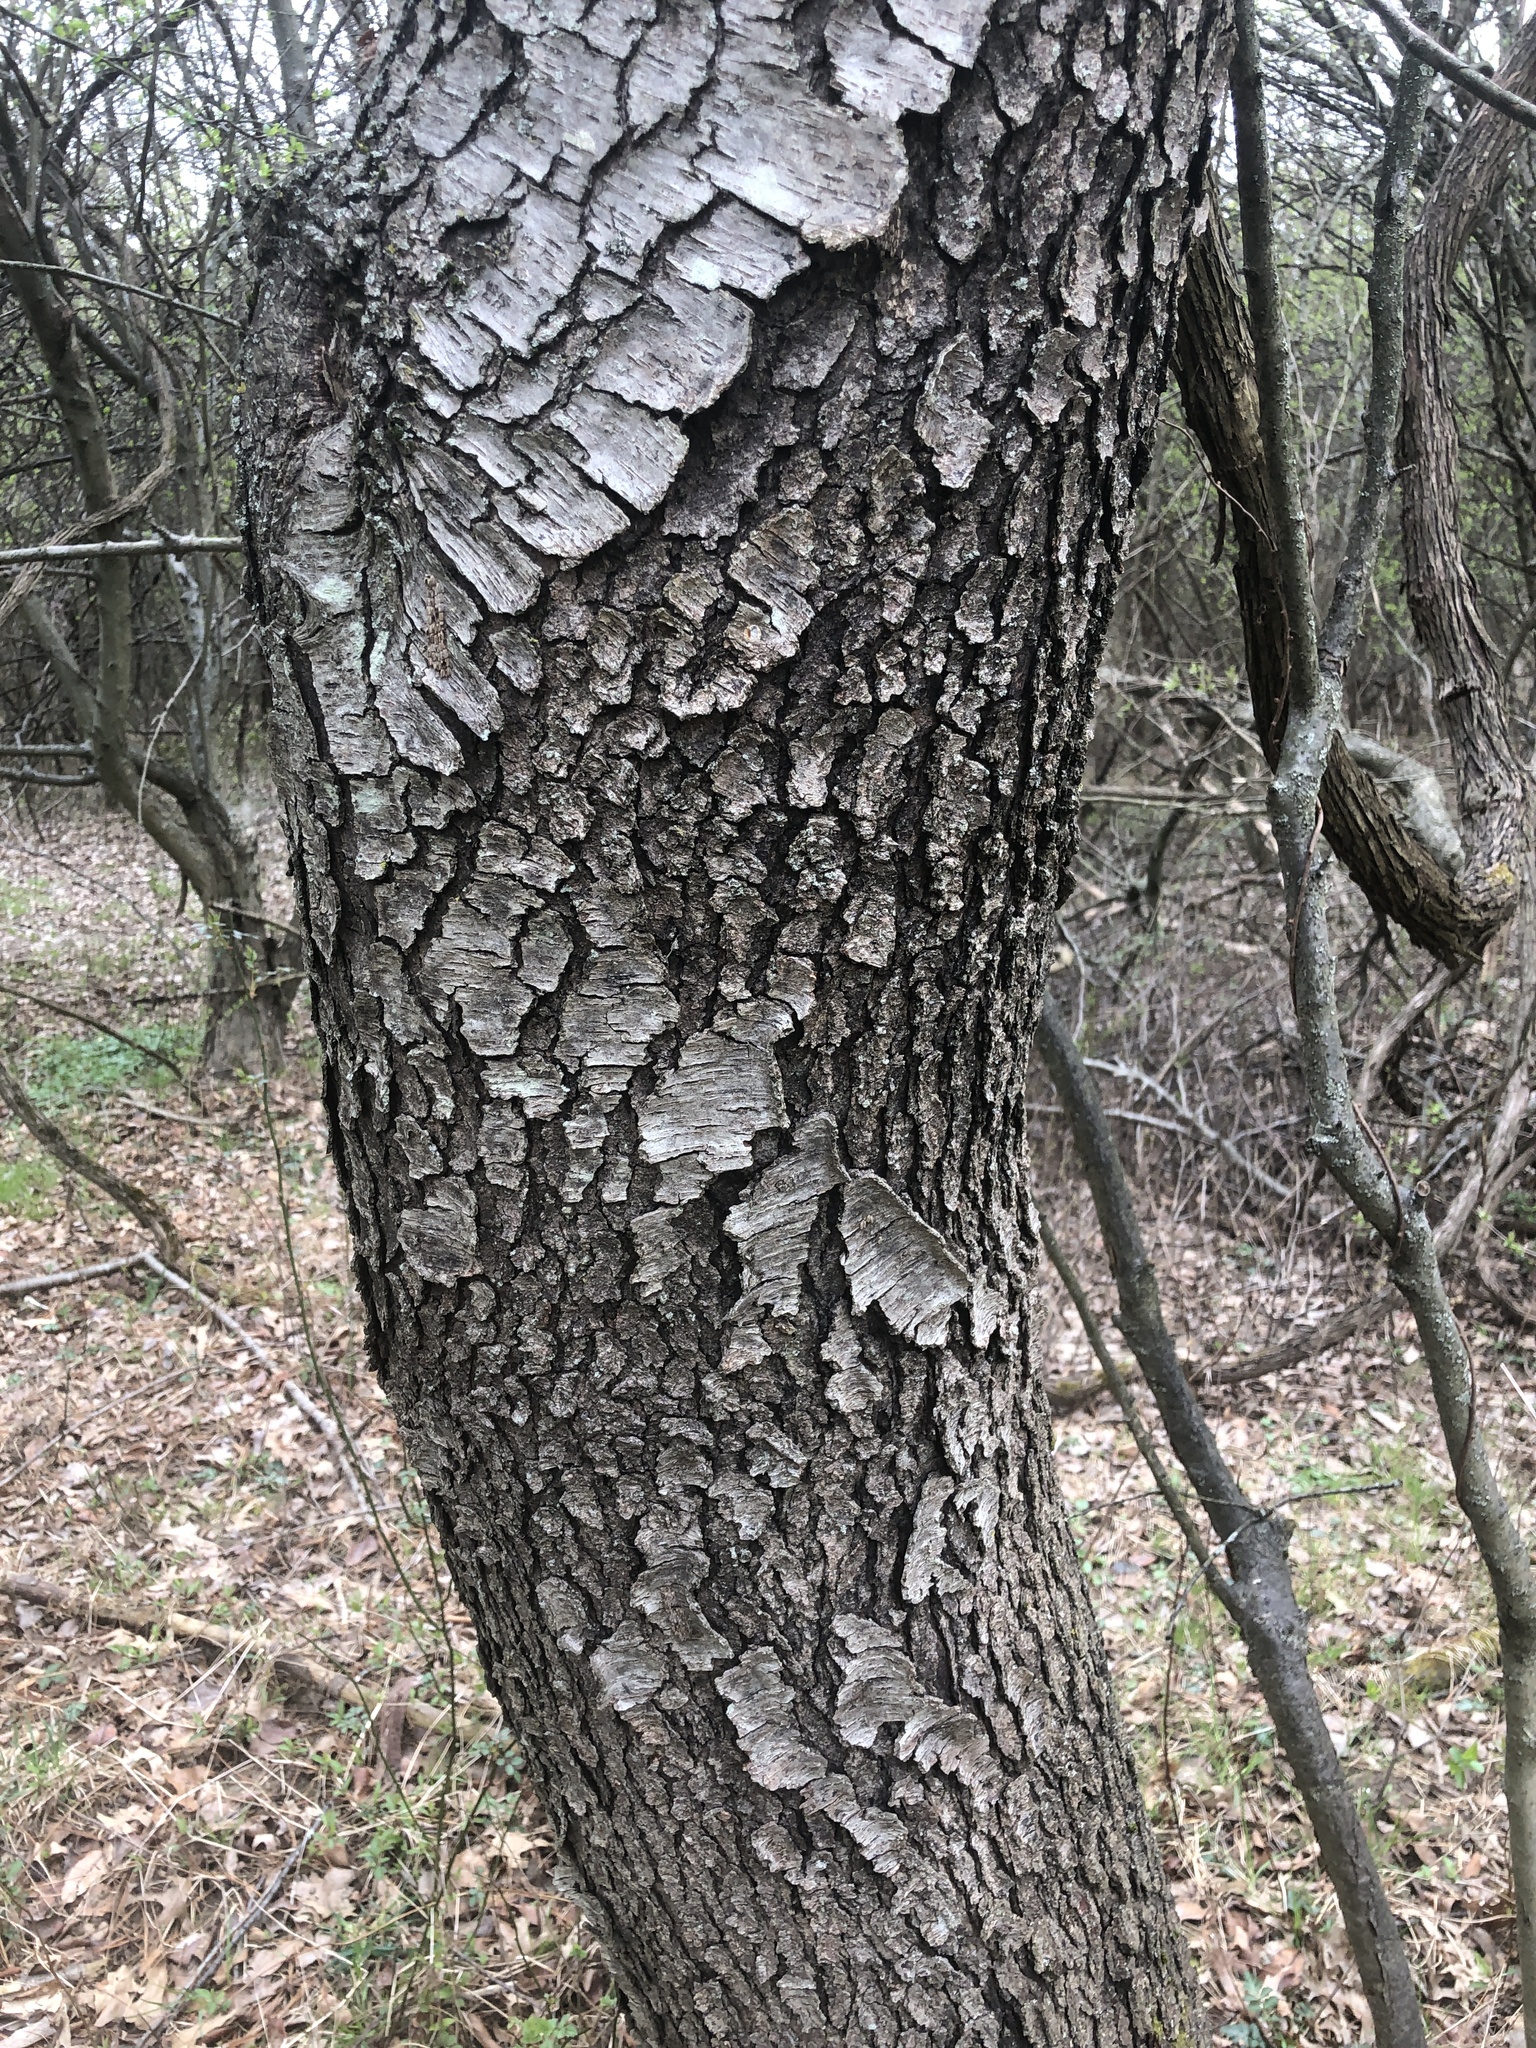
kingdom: Plantae
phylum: Tracheophyta
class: Magnoliopsida
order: Rosales
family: Rosaceae
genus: Prunus
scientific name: Prunus serotina
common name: Black cherry
